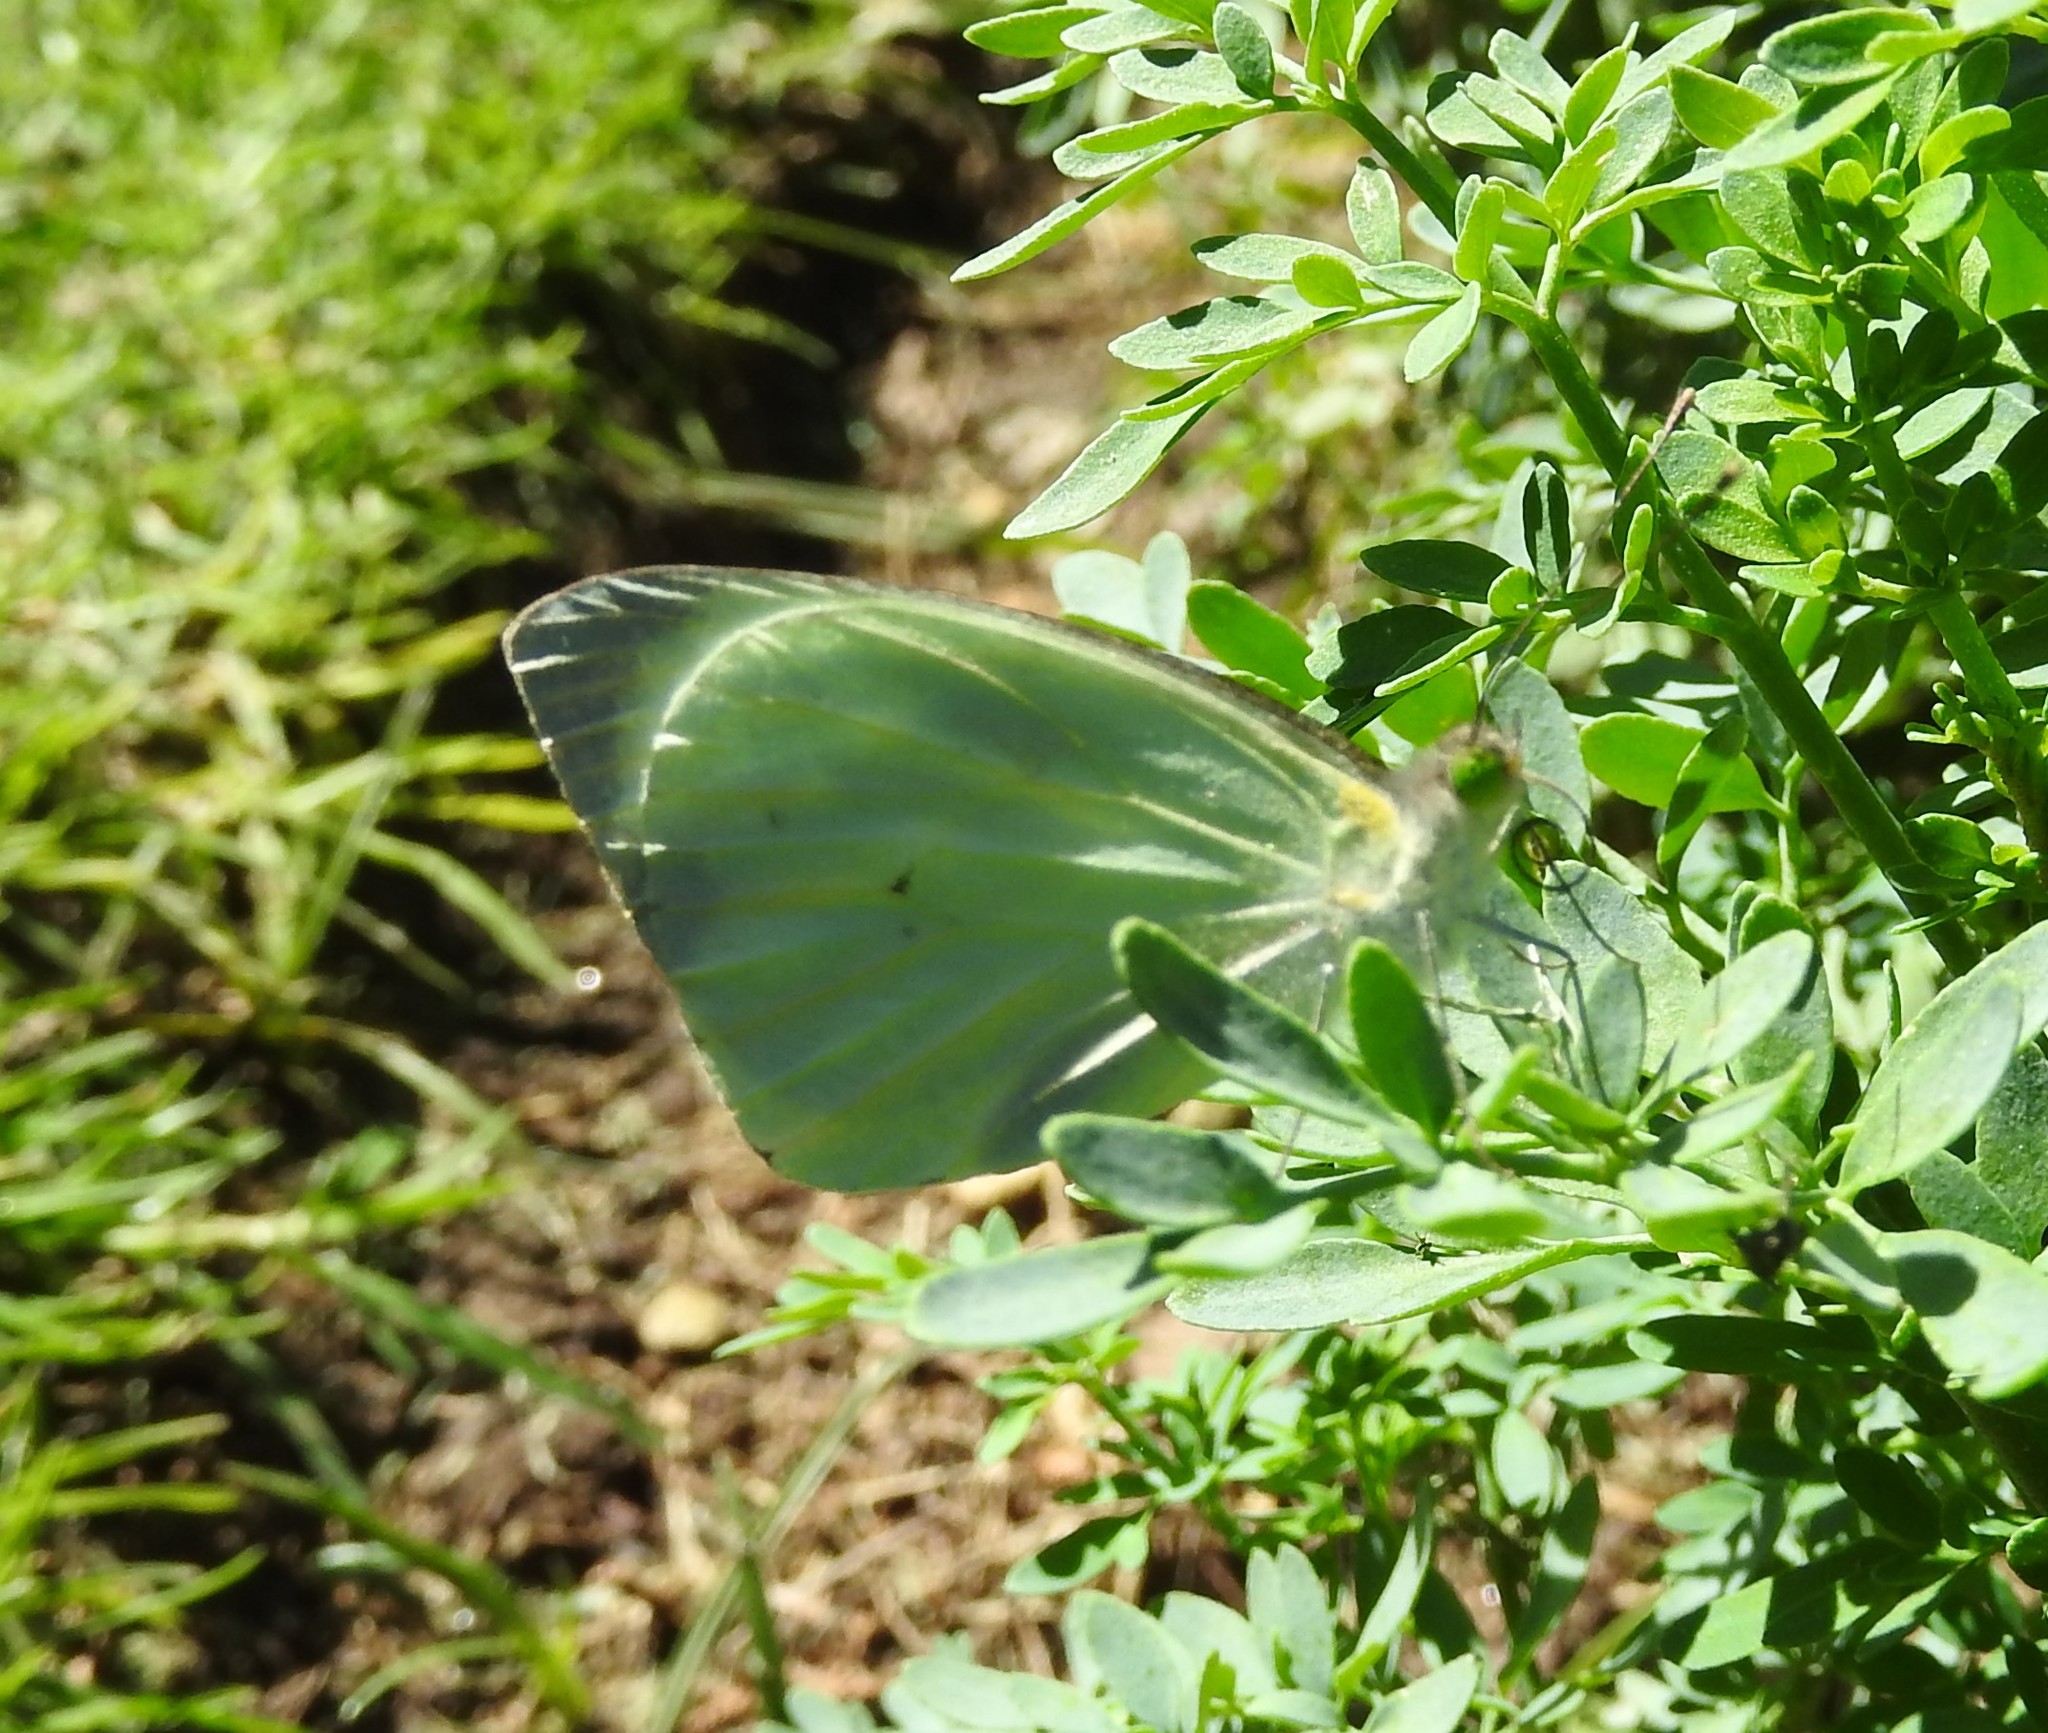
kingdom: Animalia
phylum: Arthropoda
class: Insecta
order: Lepidoptera
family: Pieridae
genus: Leptophobia
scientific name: Leptophobia aripa
